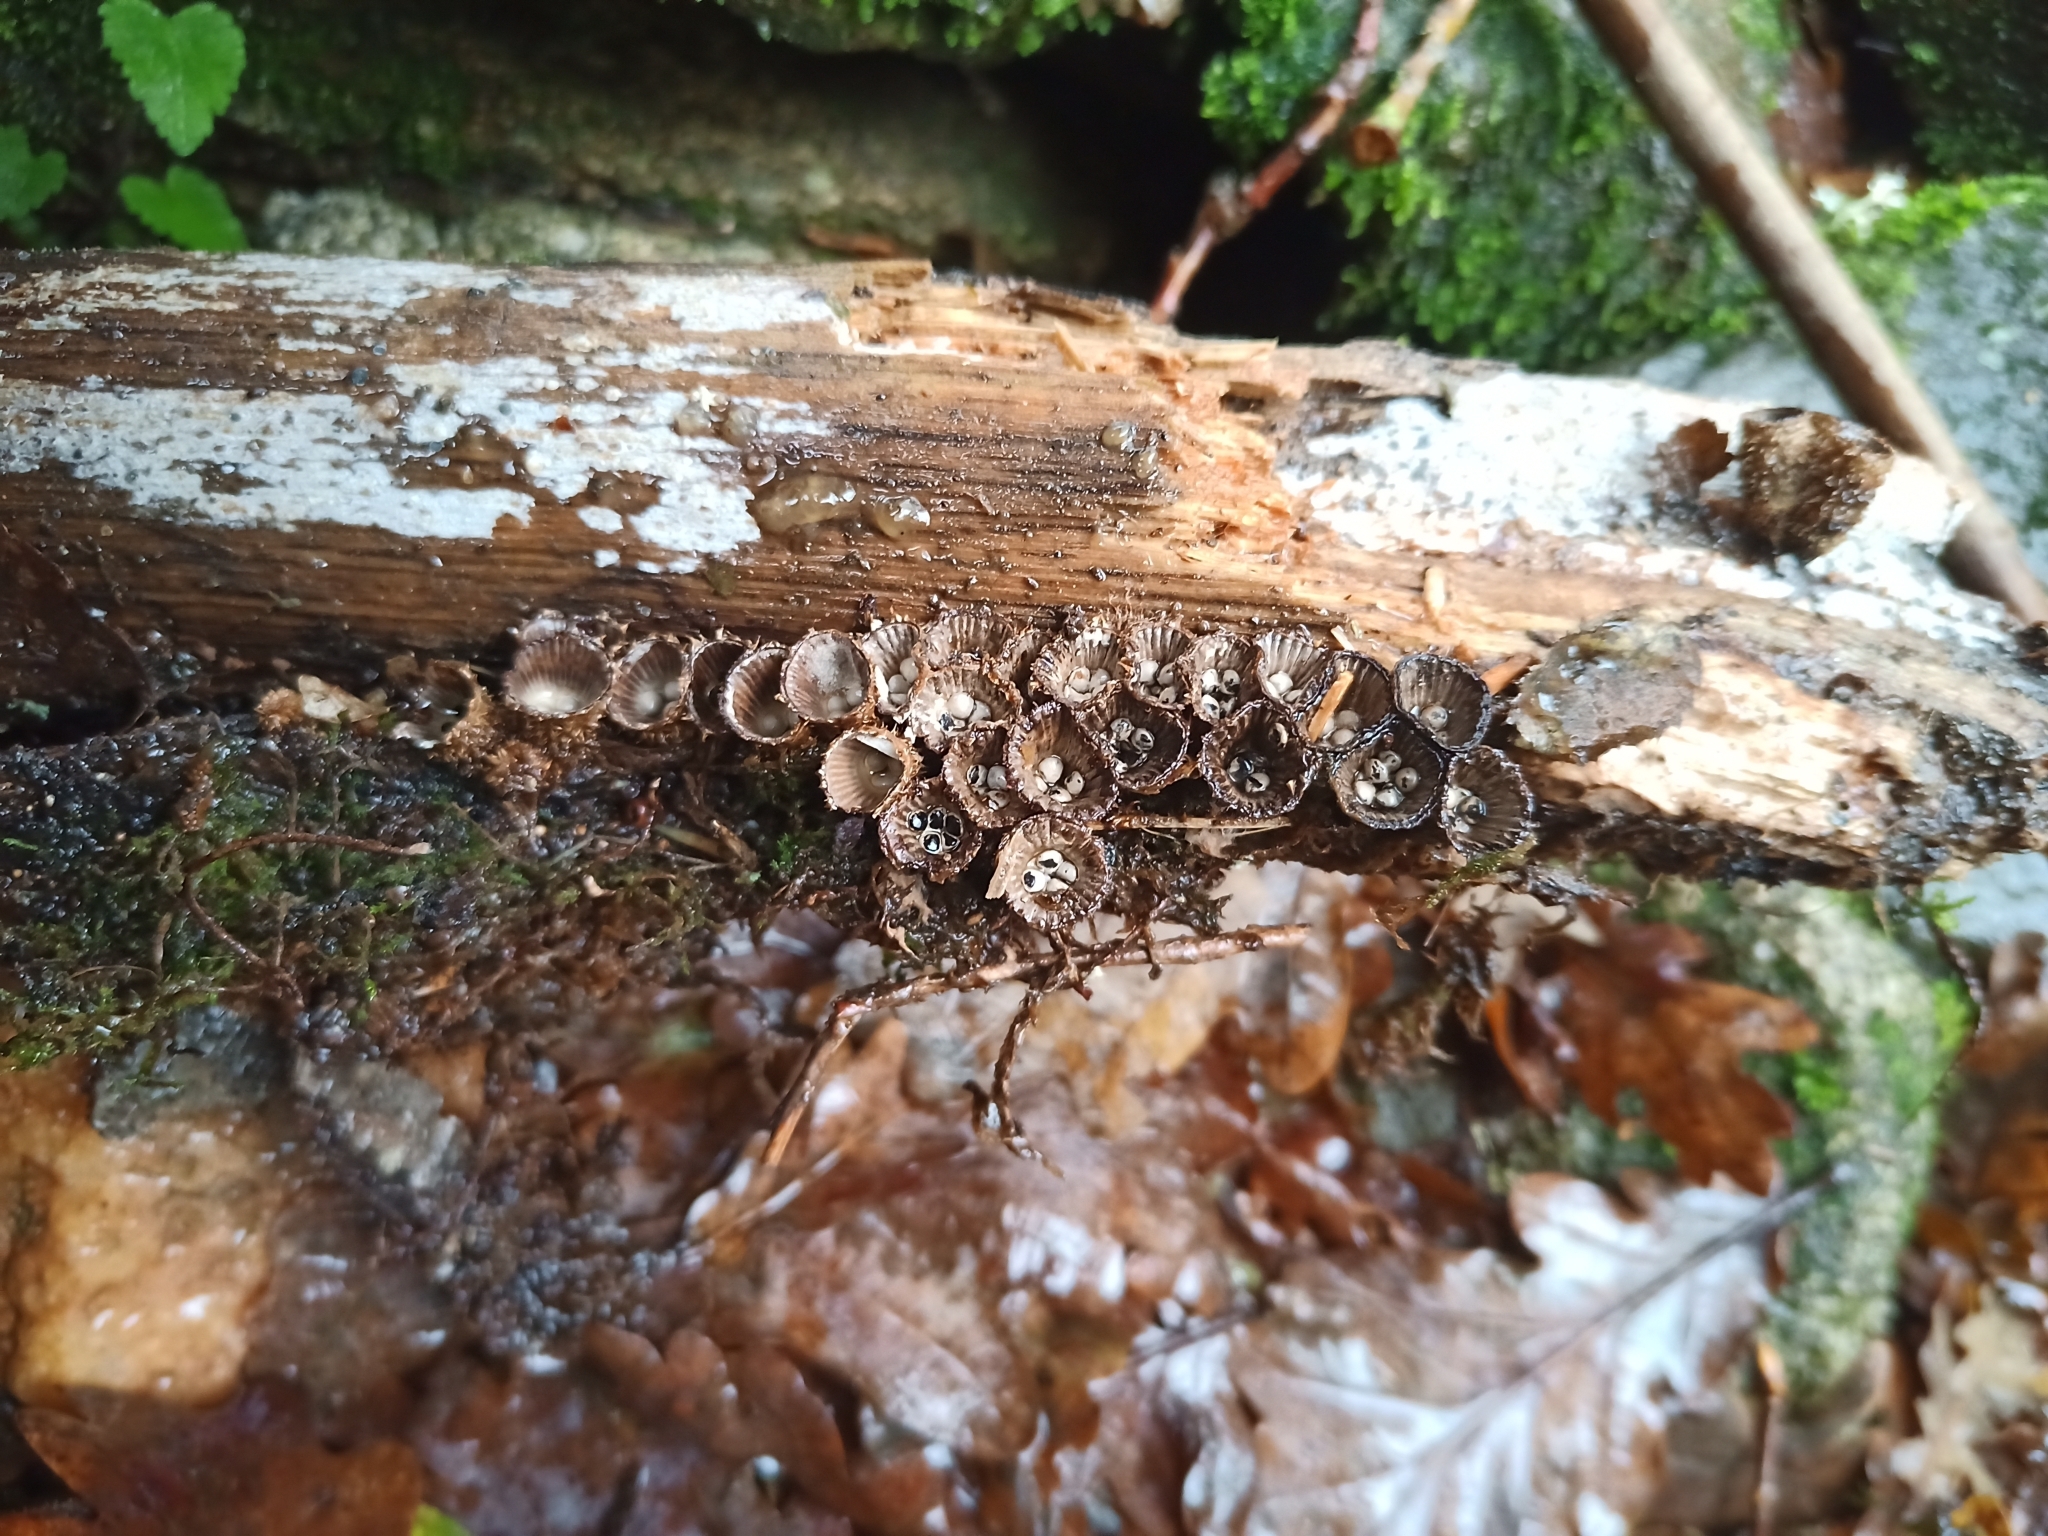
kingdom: Fungi
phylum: Basidiomycota
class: Agaricomycetes
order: Agaricales
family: Agaricaceae
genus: Cyathus
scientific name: Cyathus striatus
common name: Fluted bird's nest
